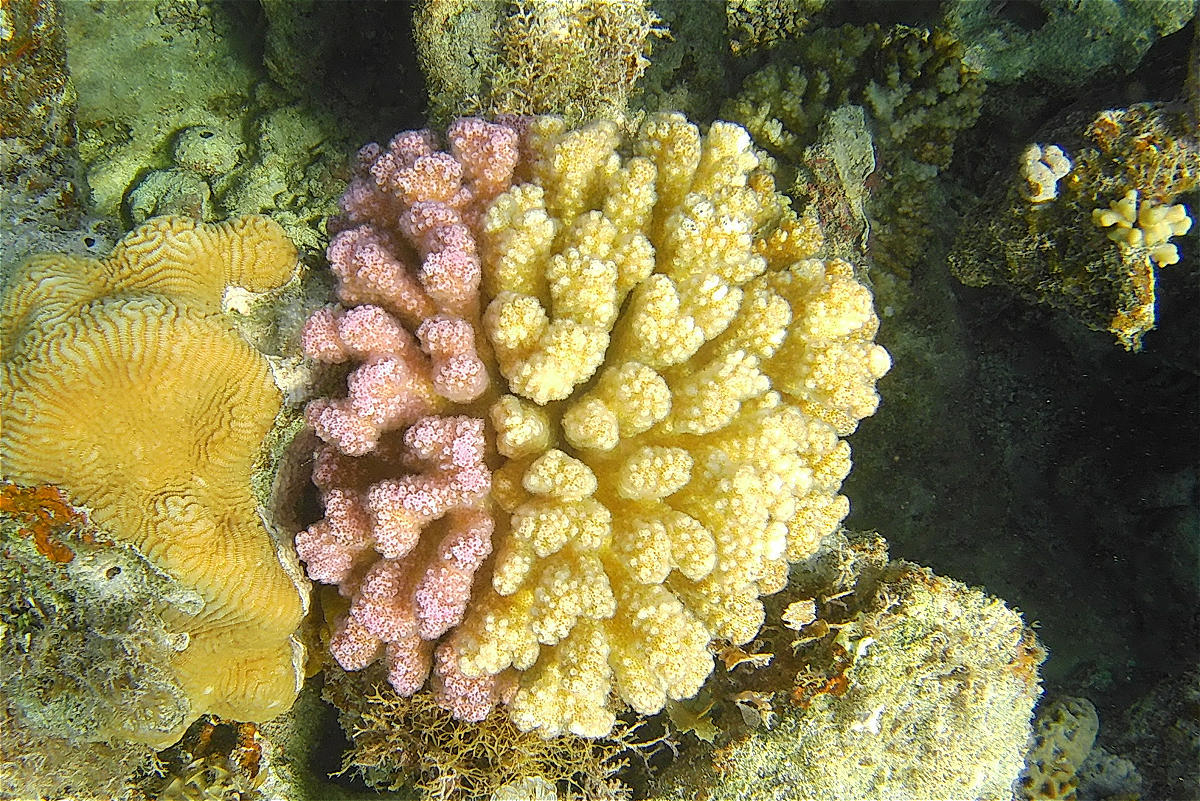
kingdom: Animalia
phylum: Cnidaria
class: Anthozoa
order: Scleractinia
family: Pocilloporidae
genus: Pocillopora
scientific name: Pocillopora verrucosa
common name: Cauliflower coral
